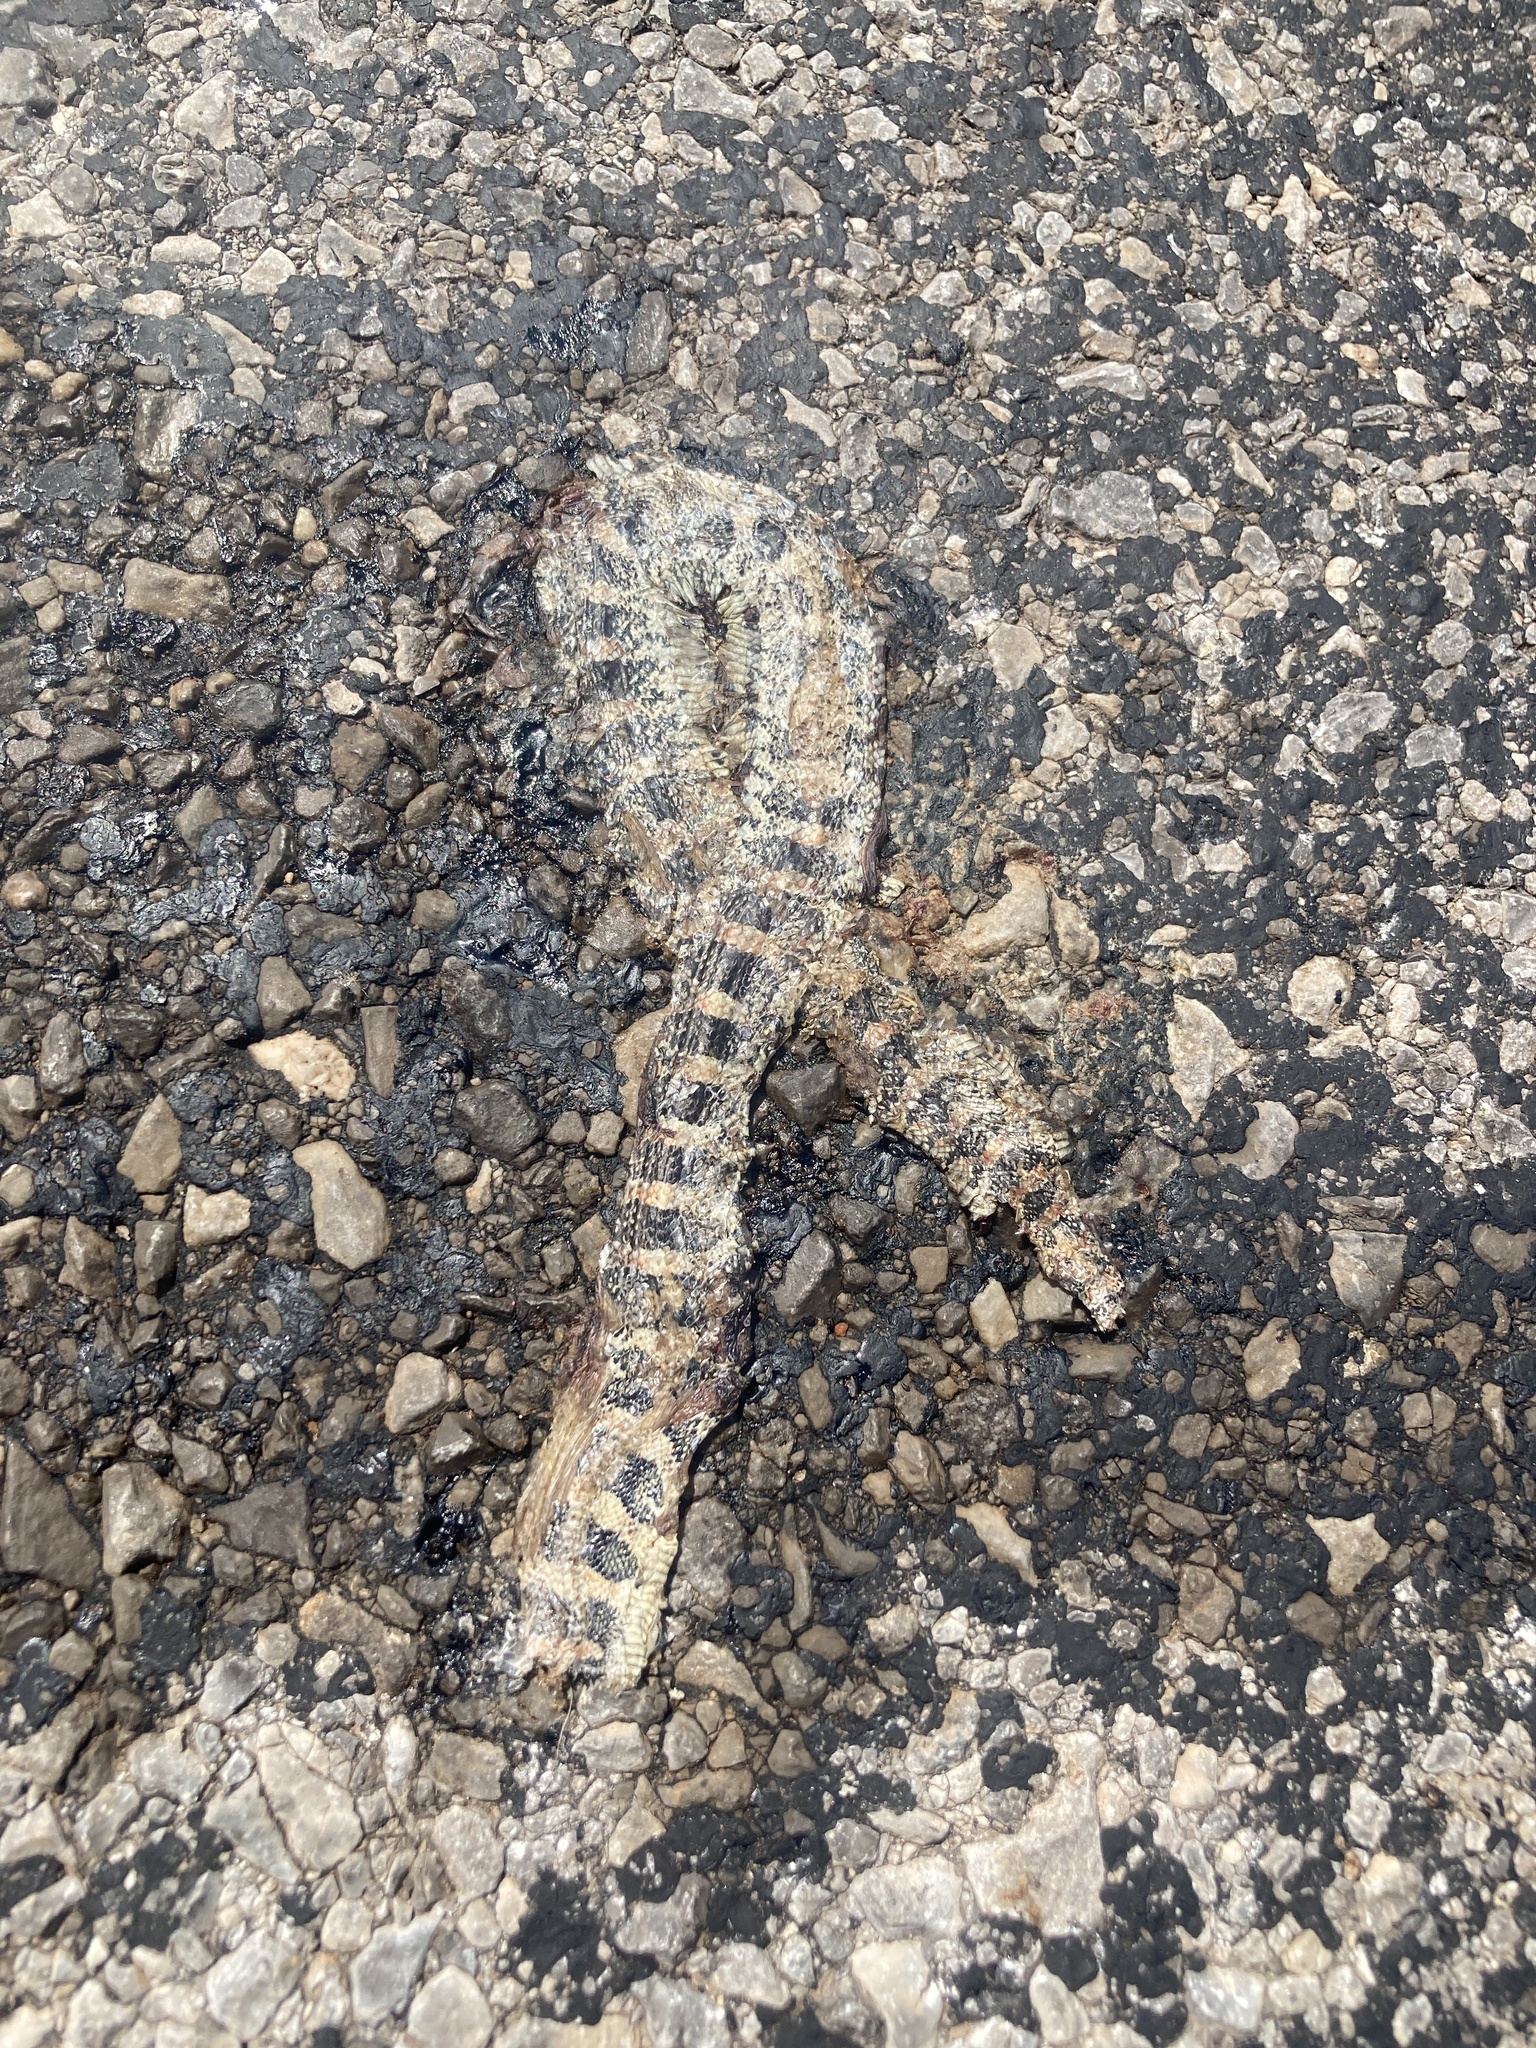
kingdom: Animalia
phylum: Chordata
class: Squamata
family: Colubridae
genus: Rhinocheilus
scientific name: Rhinocheilus lecontei
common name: Longnose snake
